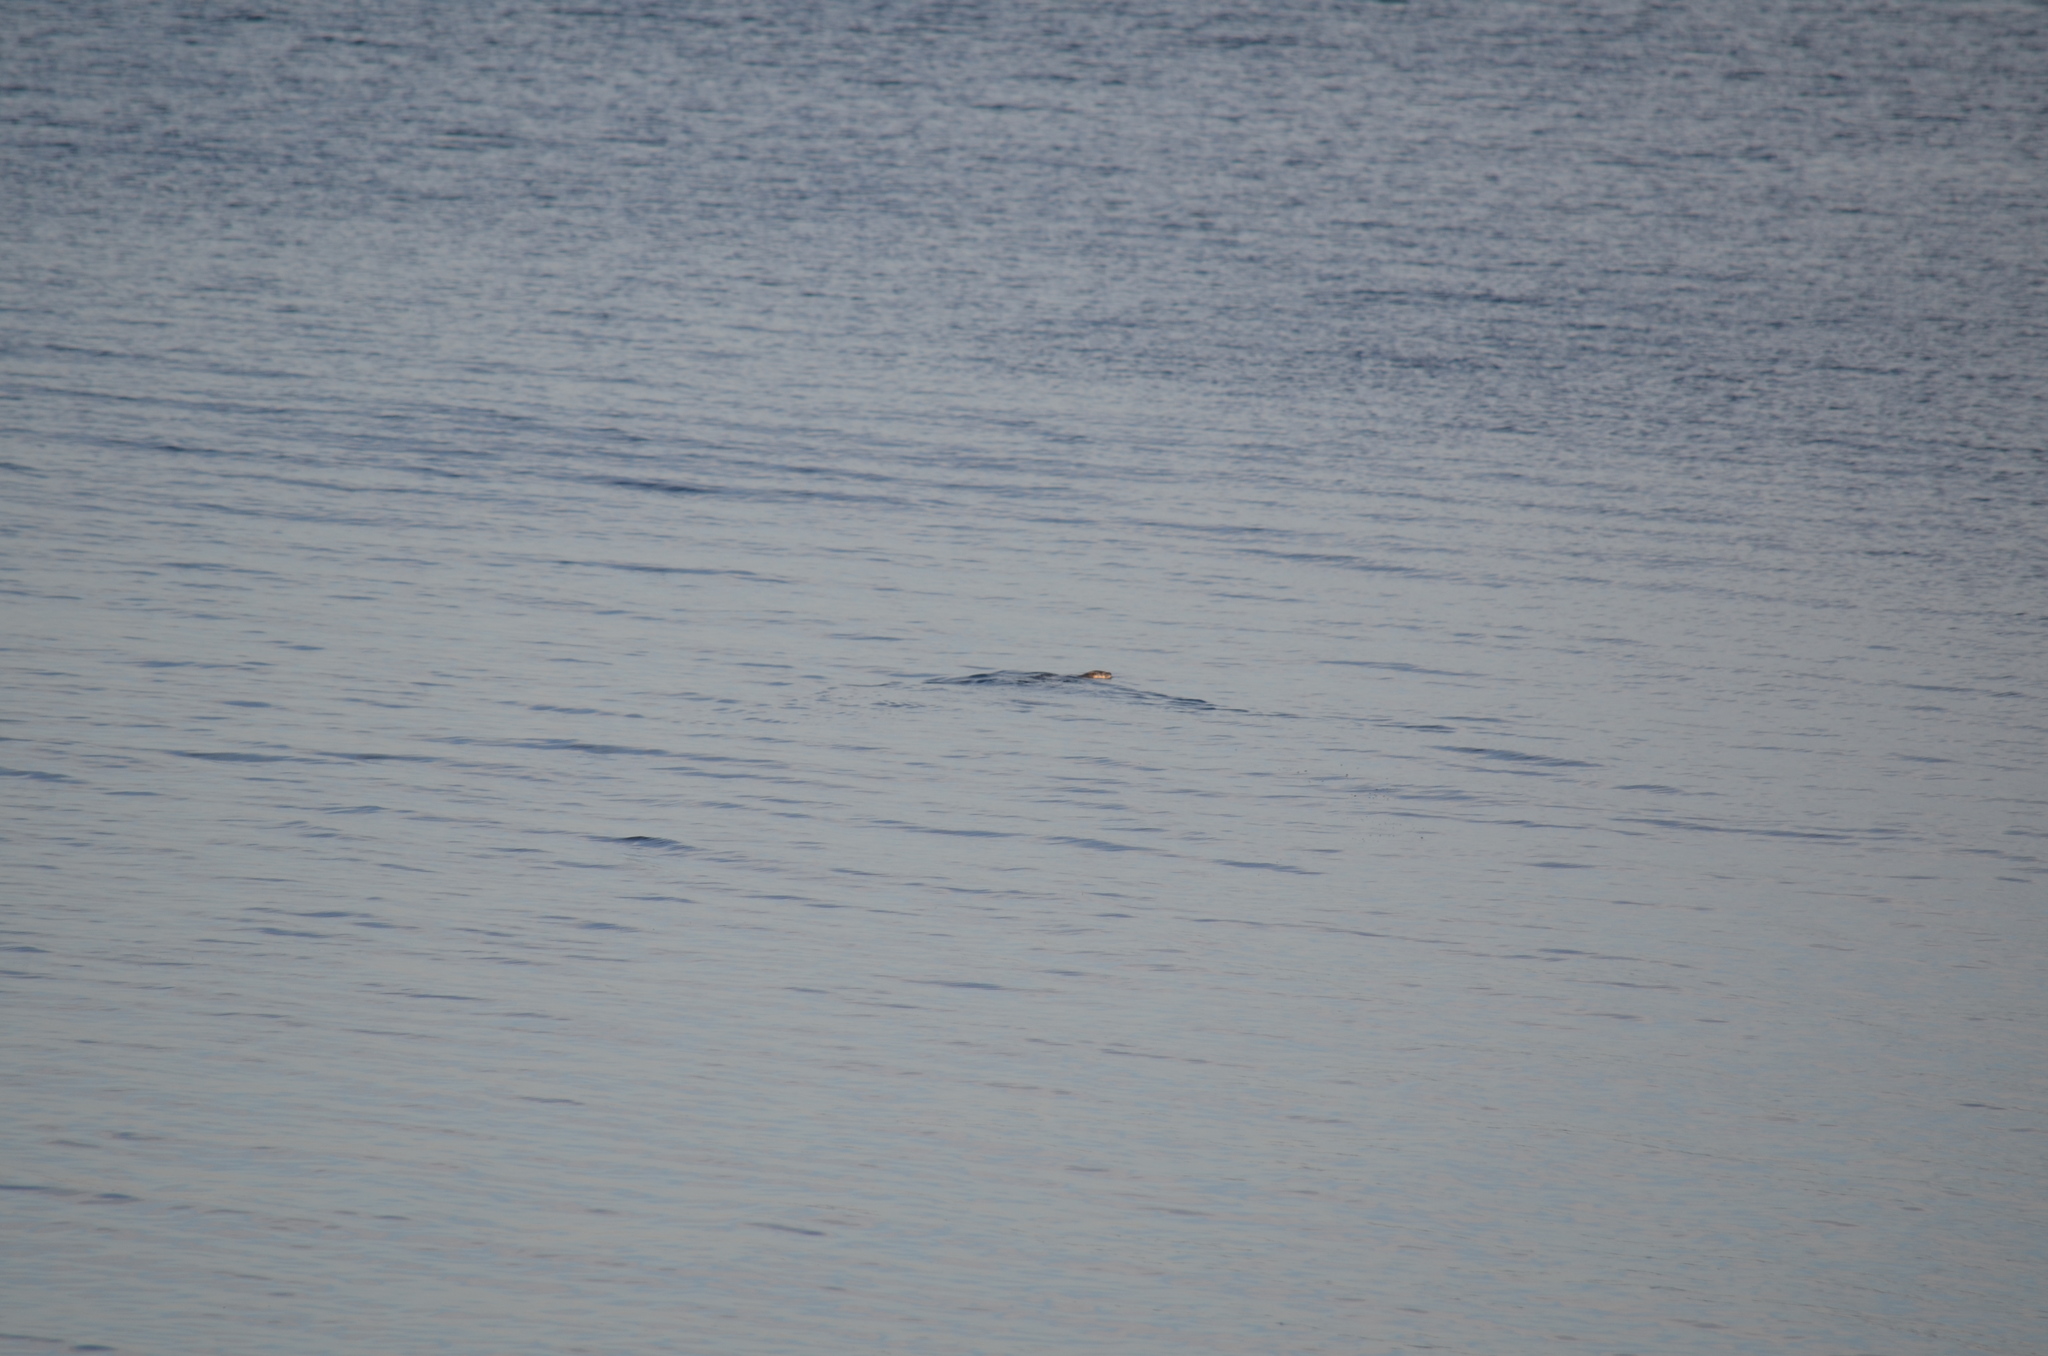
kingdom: Animalia
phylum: Chordata
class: Mammalia
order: Carnivora
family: Mustelidae
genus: Lontra
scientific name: Lontra canadensis
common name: North american river otter
